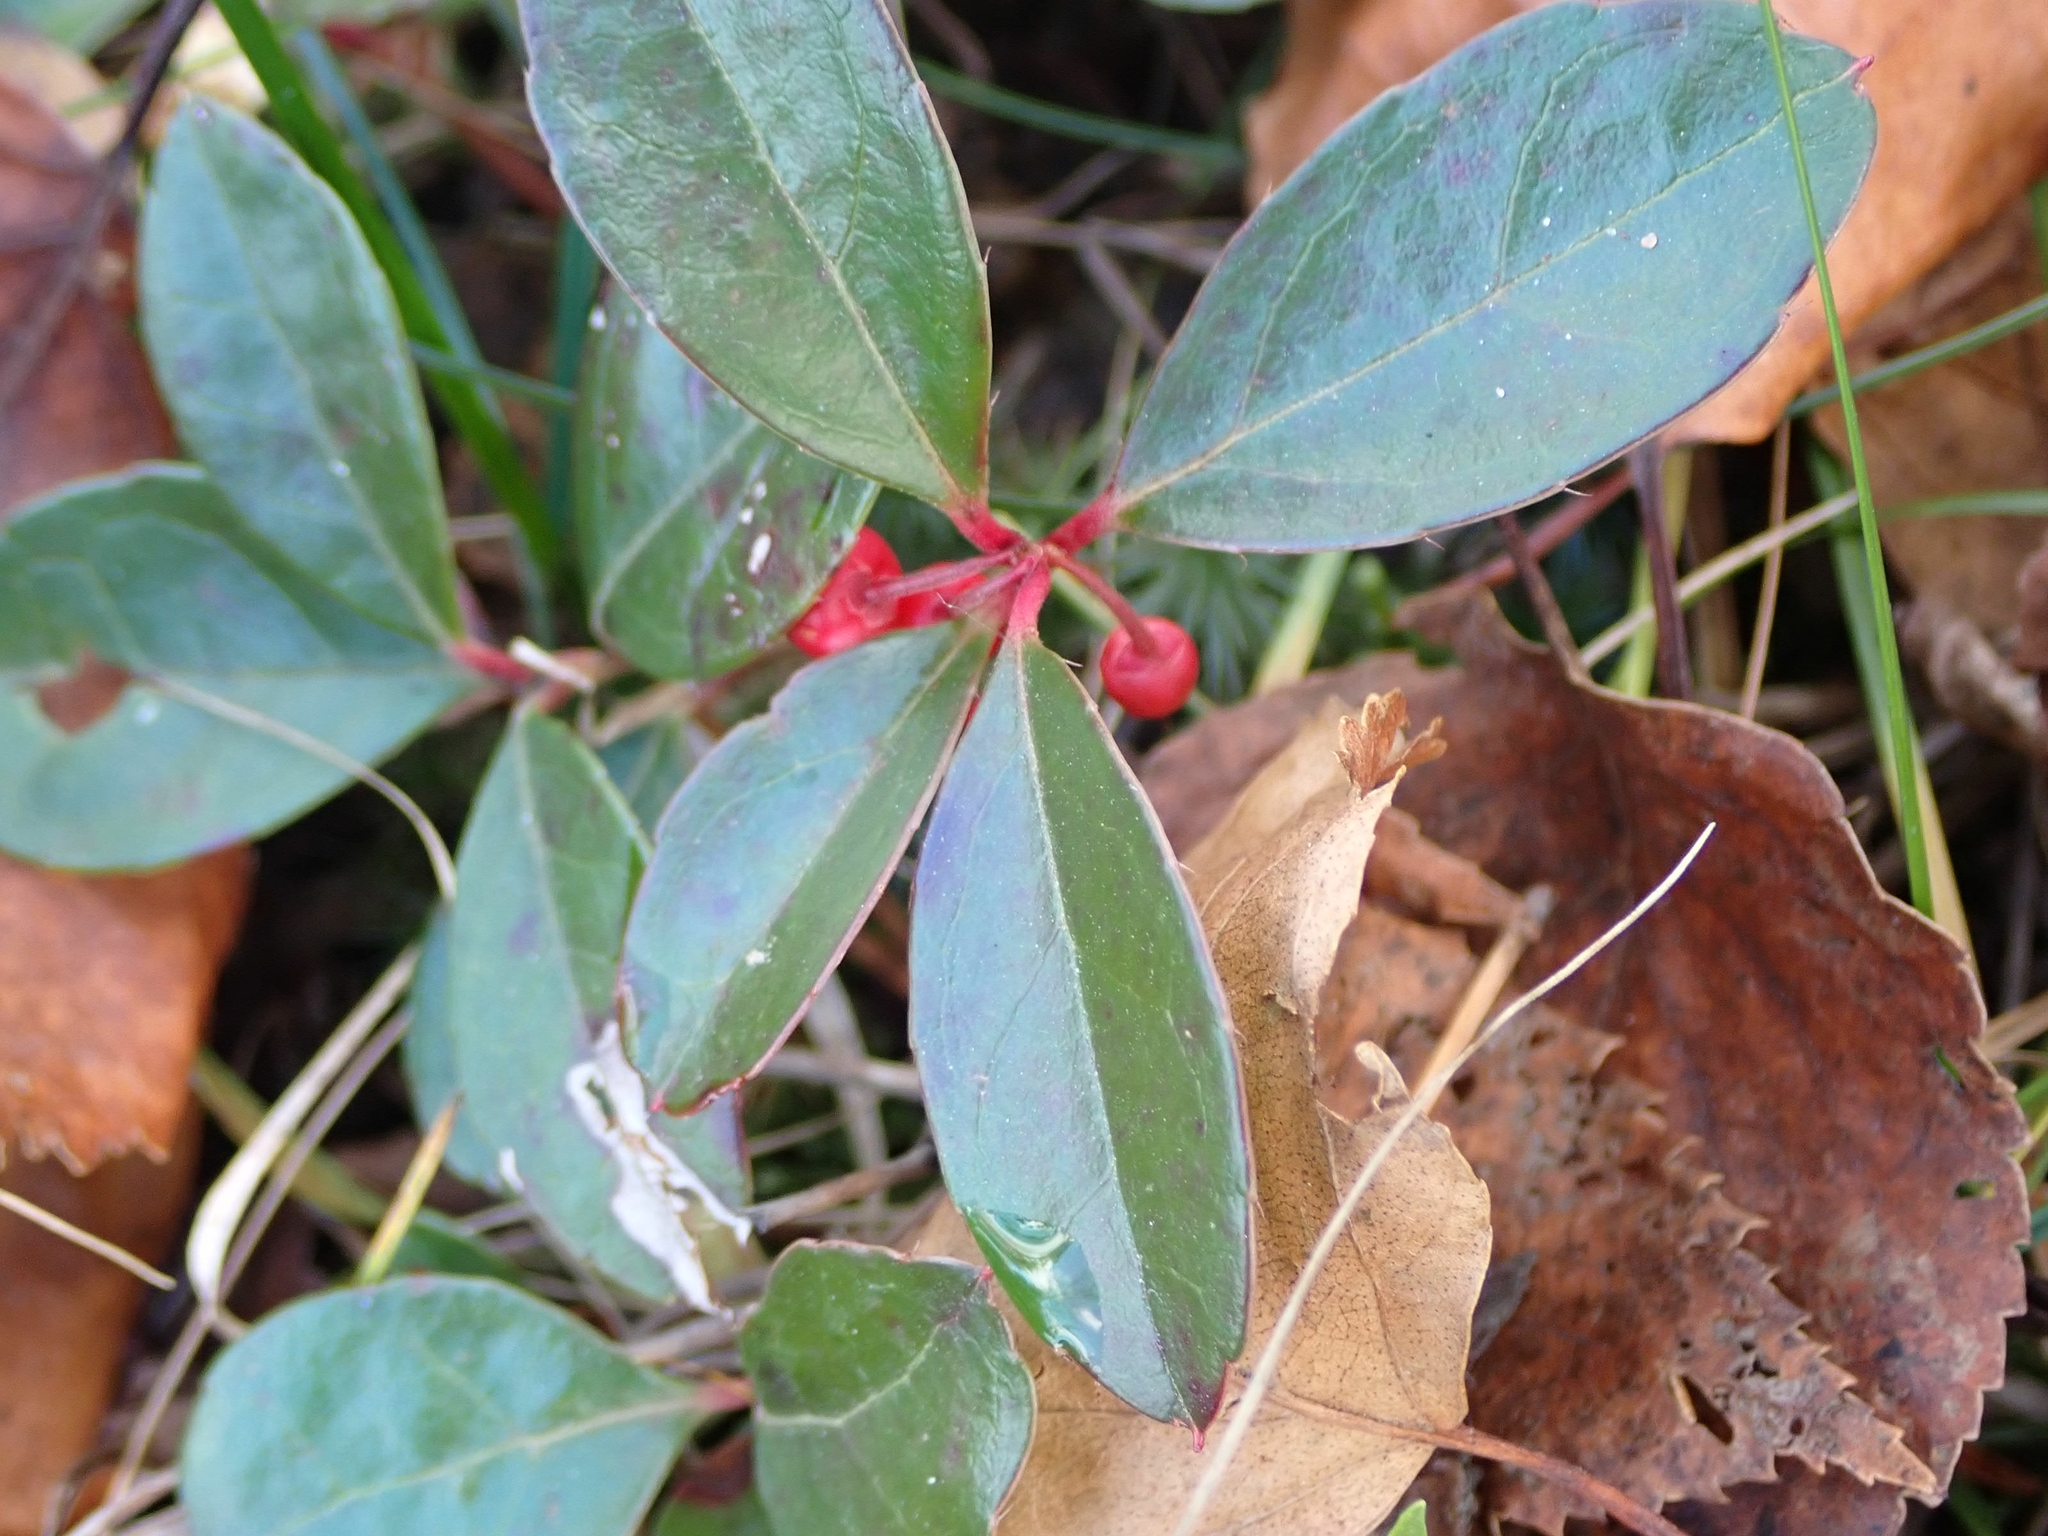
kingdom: Plantae
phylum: Tracheophyta
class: Magnoliopsida
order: Ericales
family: Ericaceae
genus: Gaultheria
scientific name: Gaultheria procumbens
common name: Checkerberry
